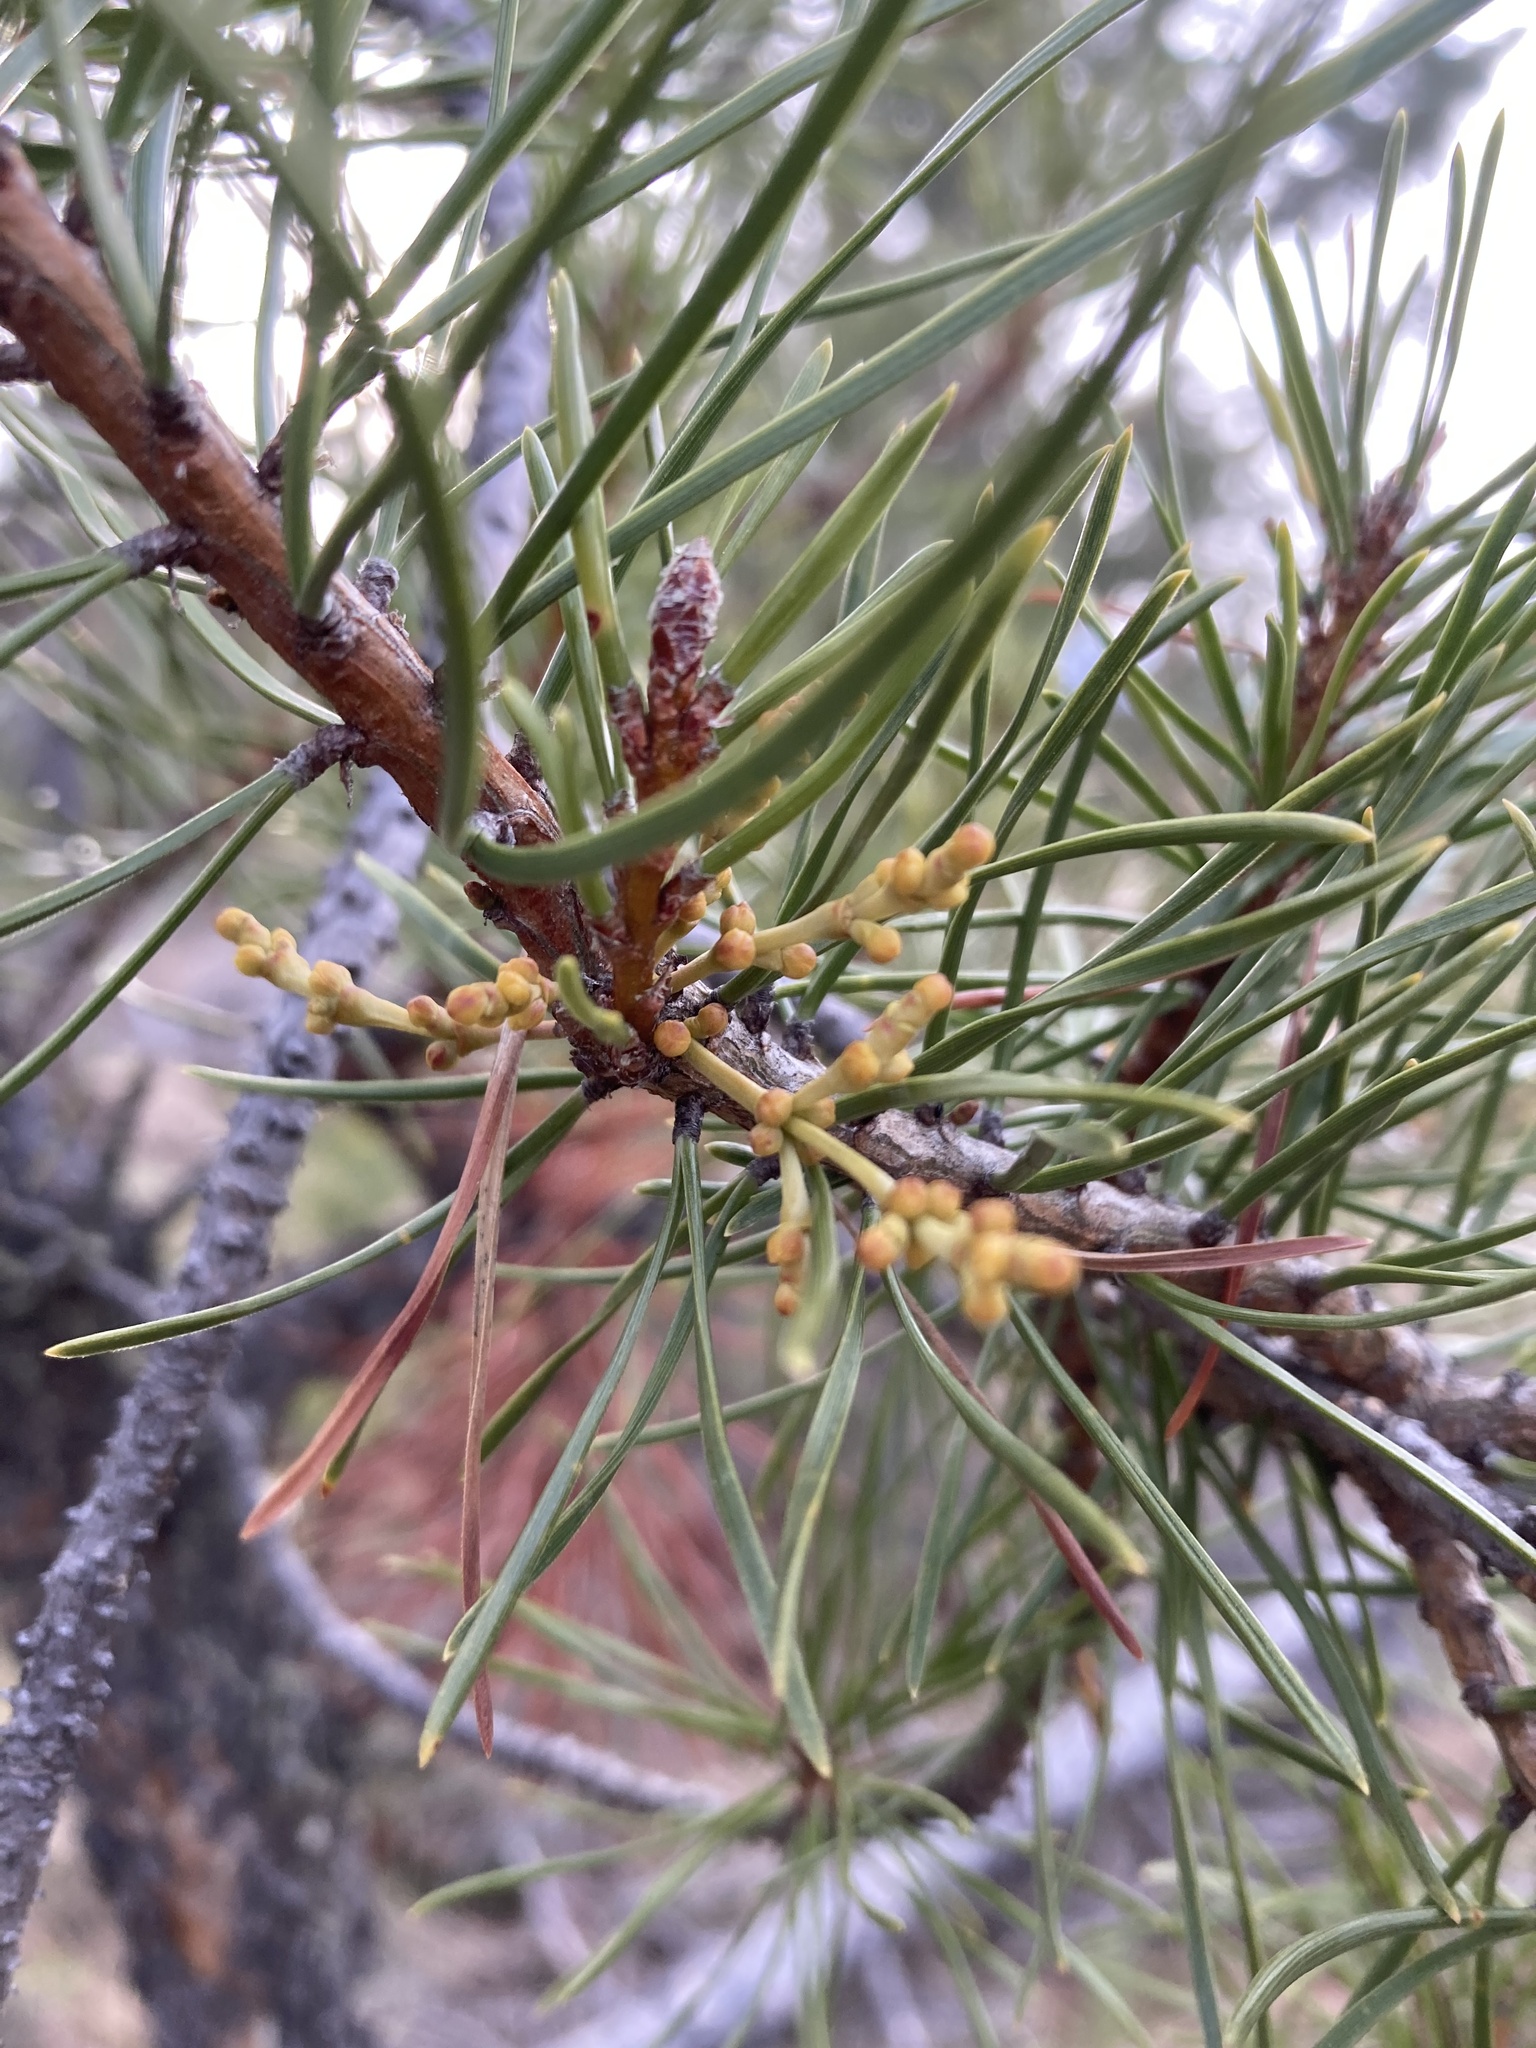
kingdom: Plantae
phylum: Tracheophyta
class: Magnoliopsida
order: Santalales
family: Viscaceae
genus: Arceuthobium
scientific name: Arceuthobium americanum
